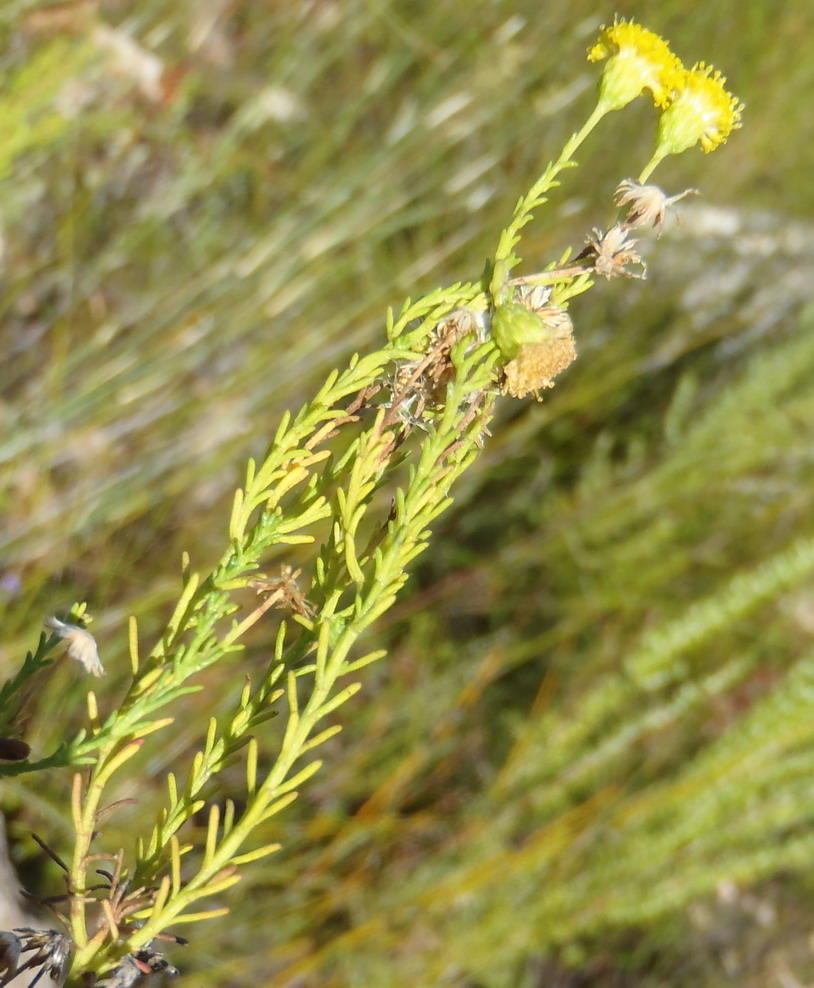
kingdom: Plantae
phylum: Tracheophyta
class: Magnoliopsida
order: Asterales
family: Asteraceae
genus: Chrysocoma
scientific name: Chrysocoma ciliata
